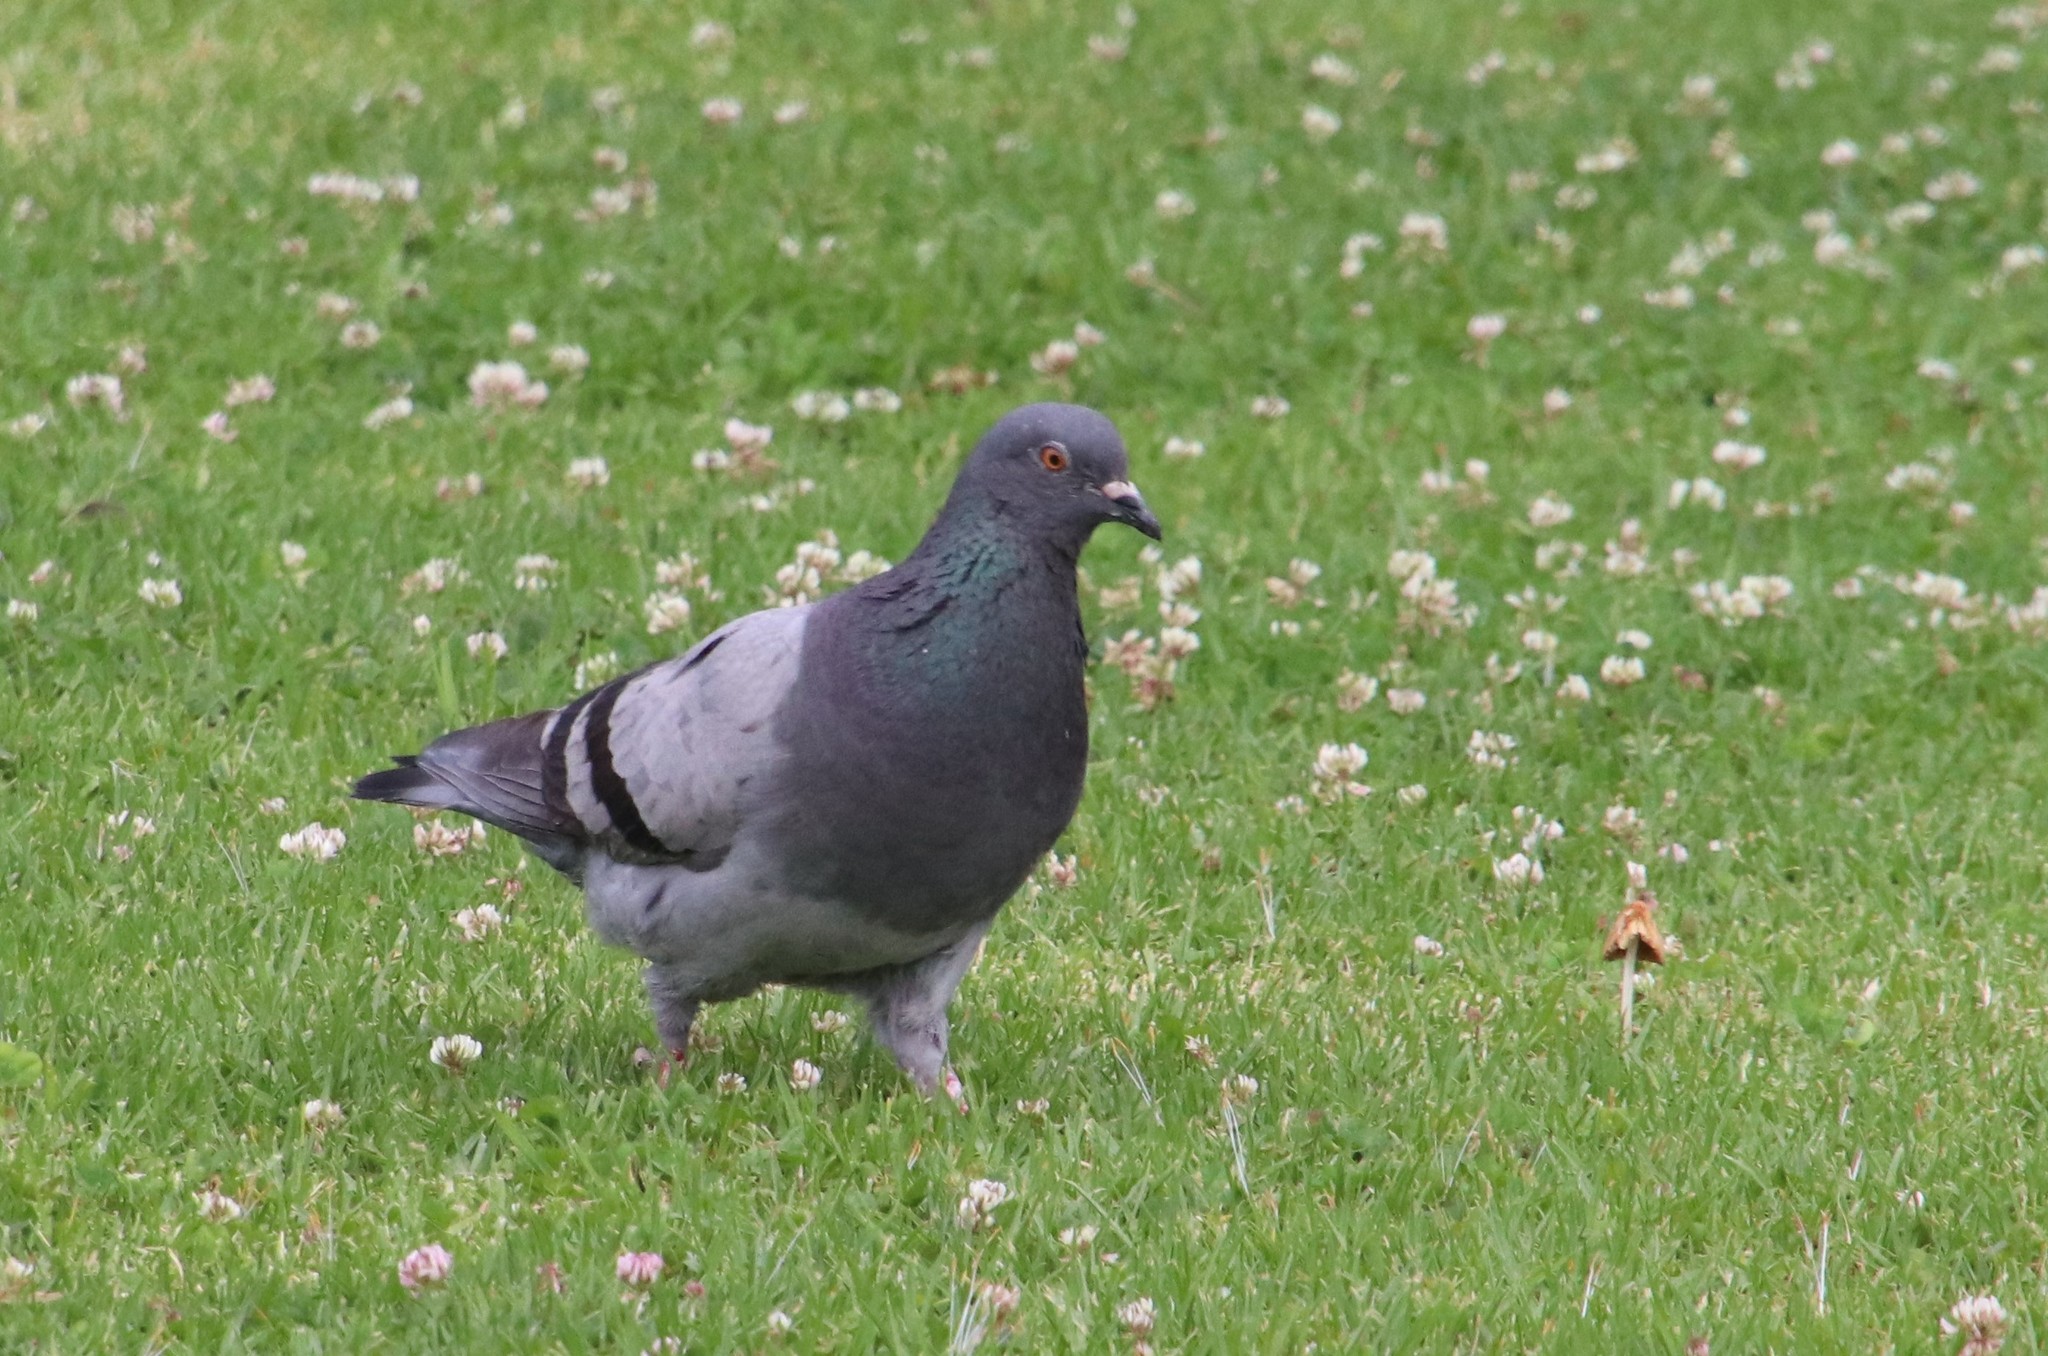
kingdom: Animalia
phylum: Chordata
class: Aves
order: Columbiformes
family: Columbidae
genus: Columba
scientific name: Columba livia
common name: Rock pigeon
